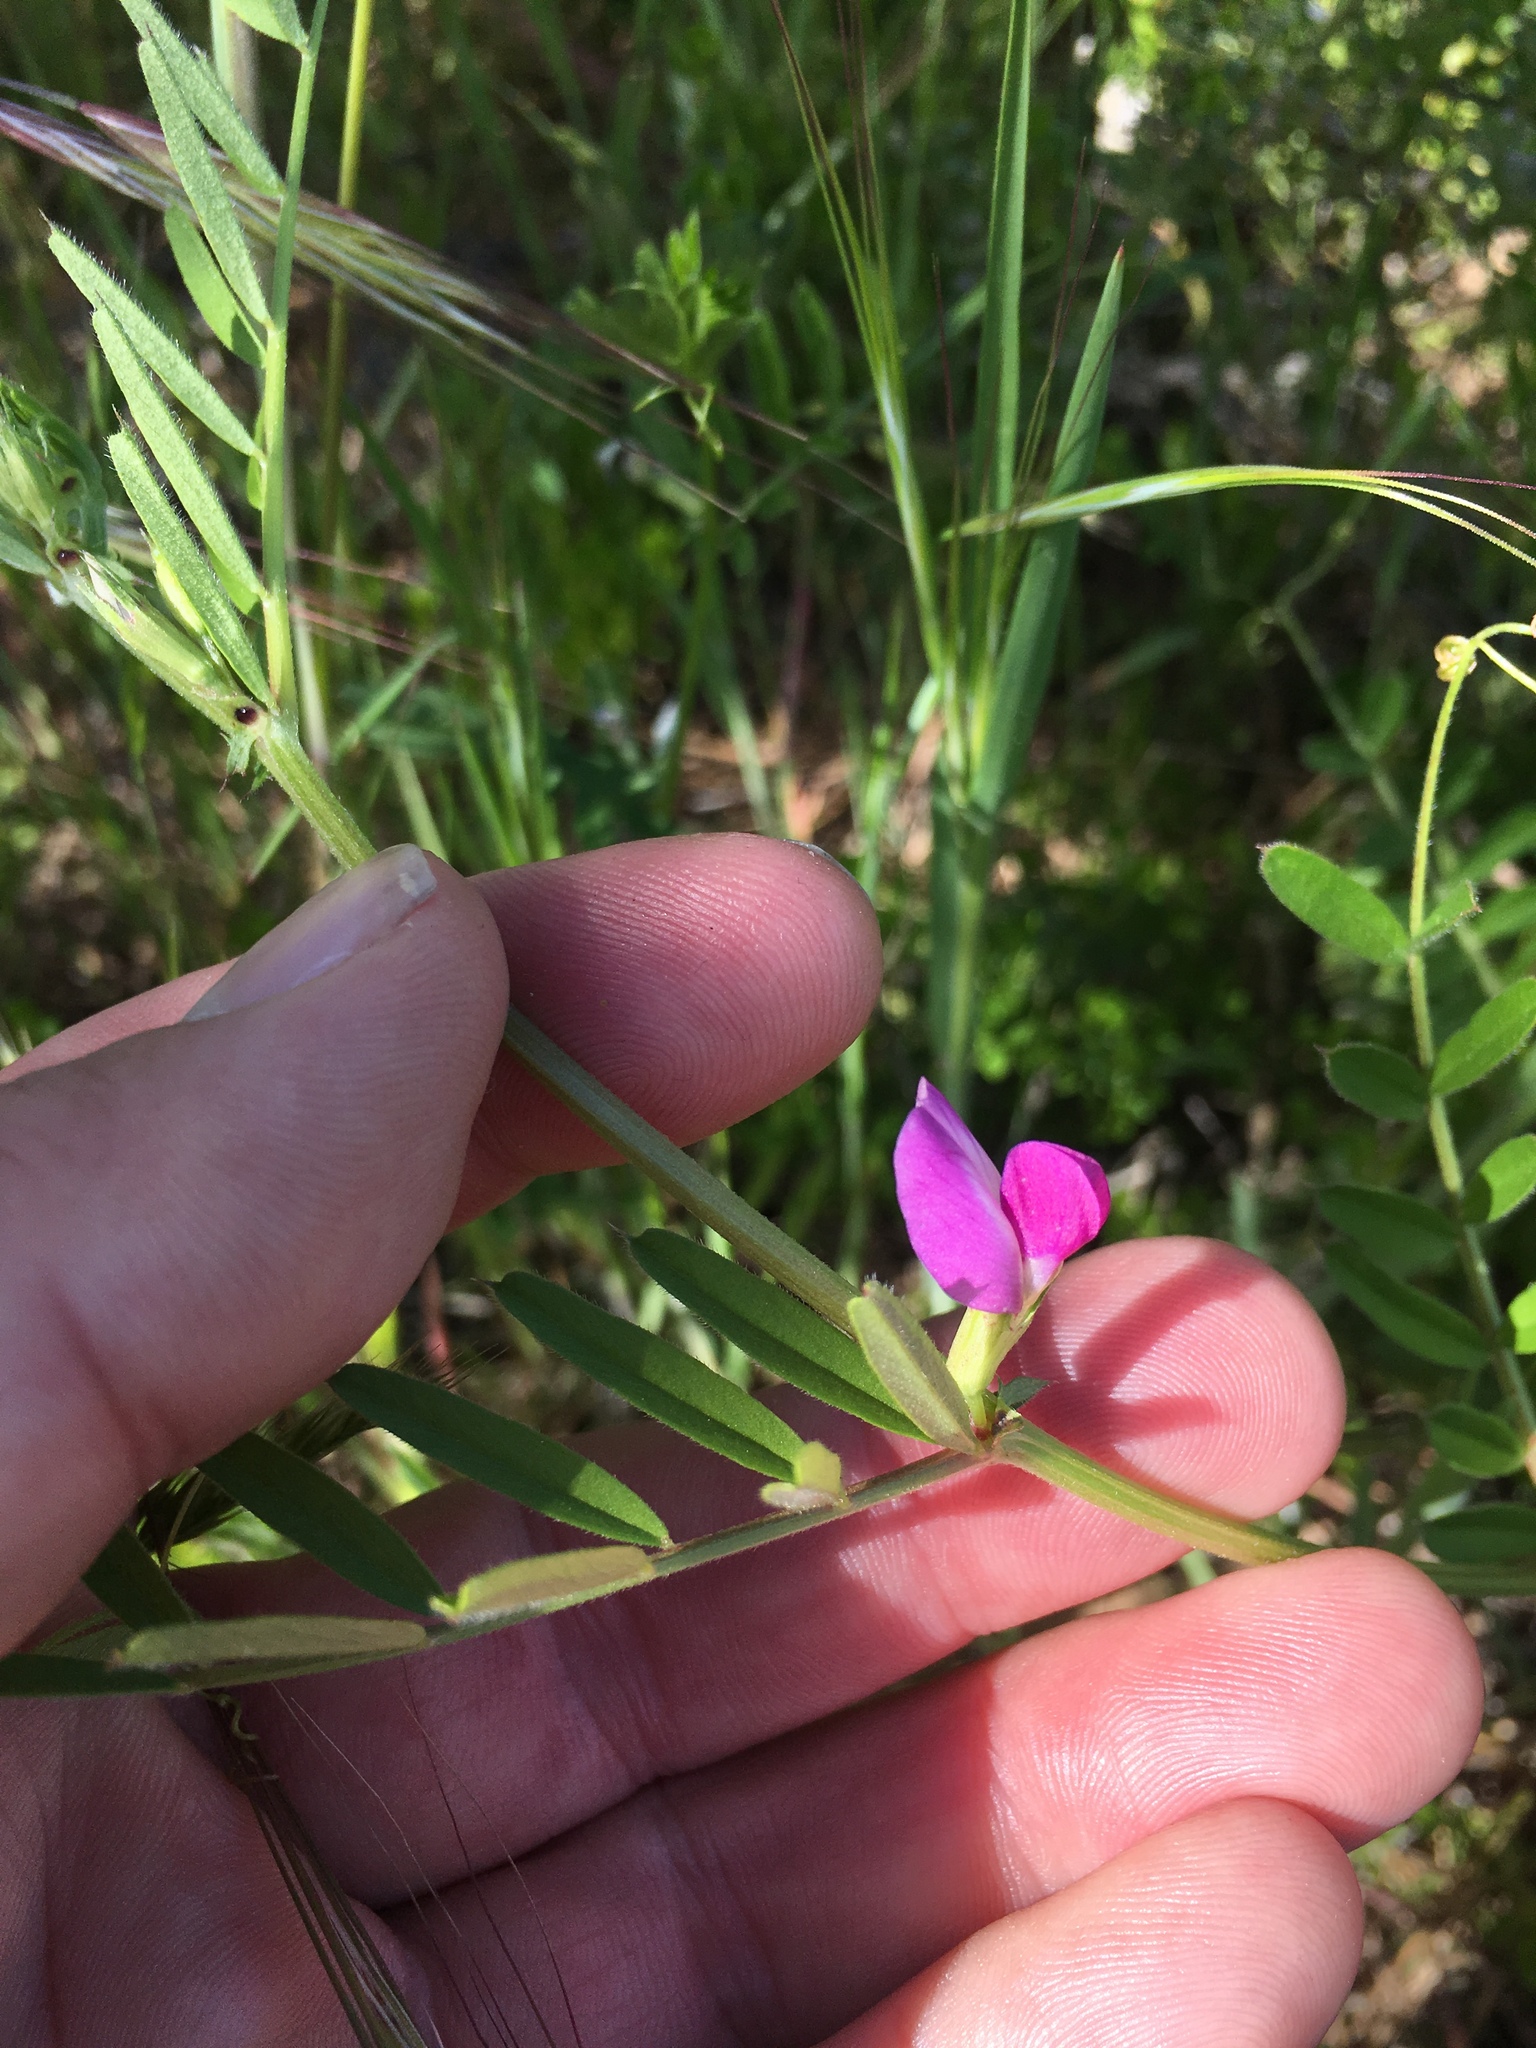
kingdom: Plantae
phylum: Tracheophyta
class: Magnoliopsida
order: Fabales
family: Fabaceae
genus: Vicia
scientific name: Vicia sativa
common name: Garden vetch
